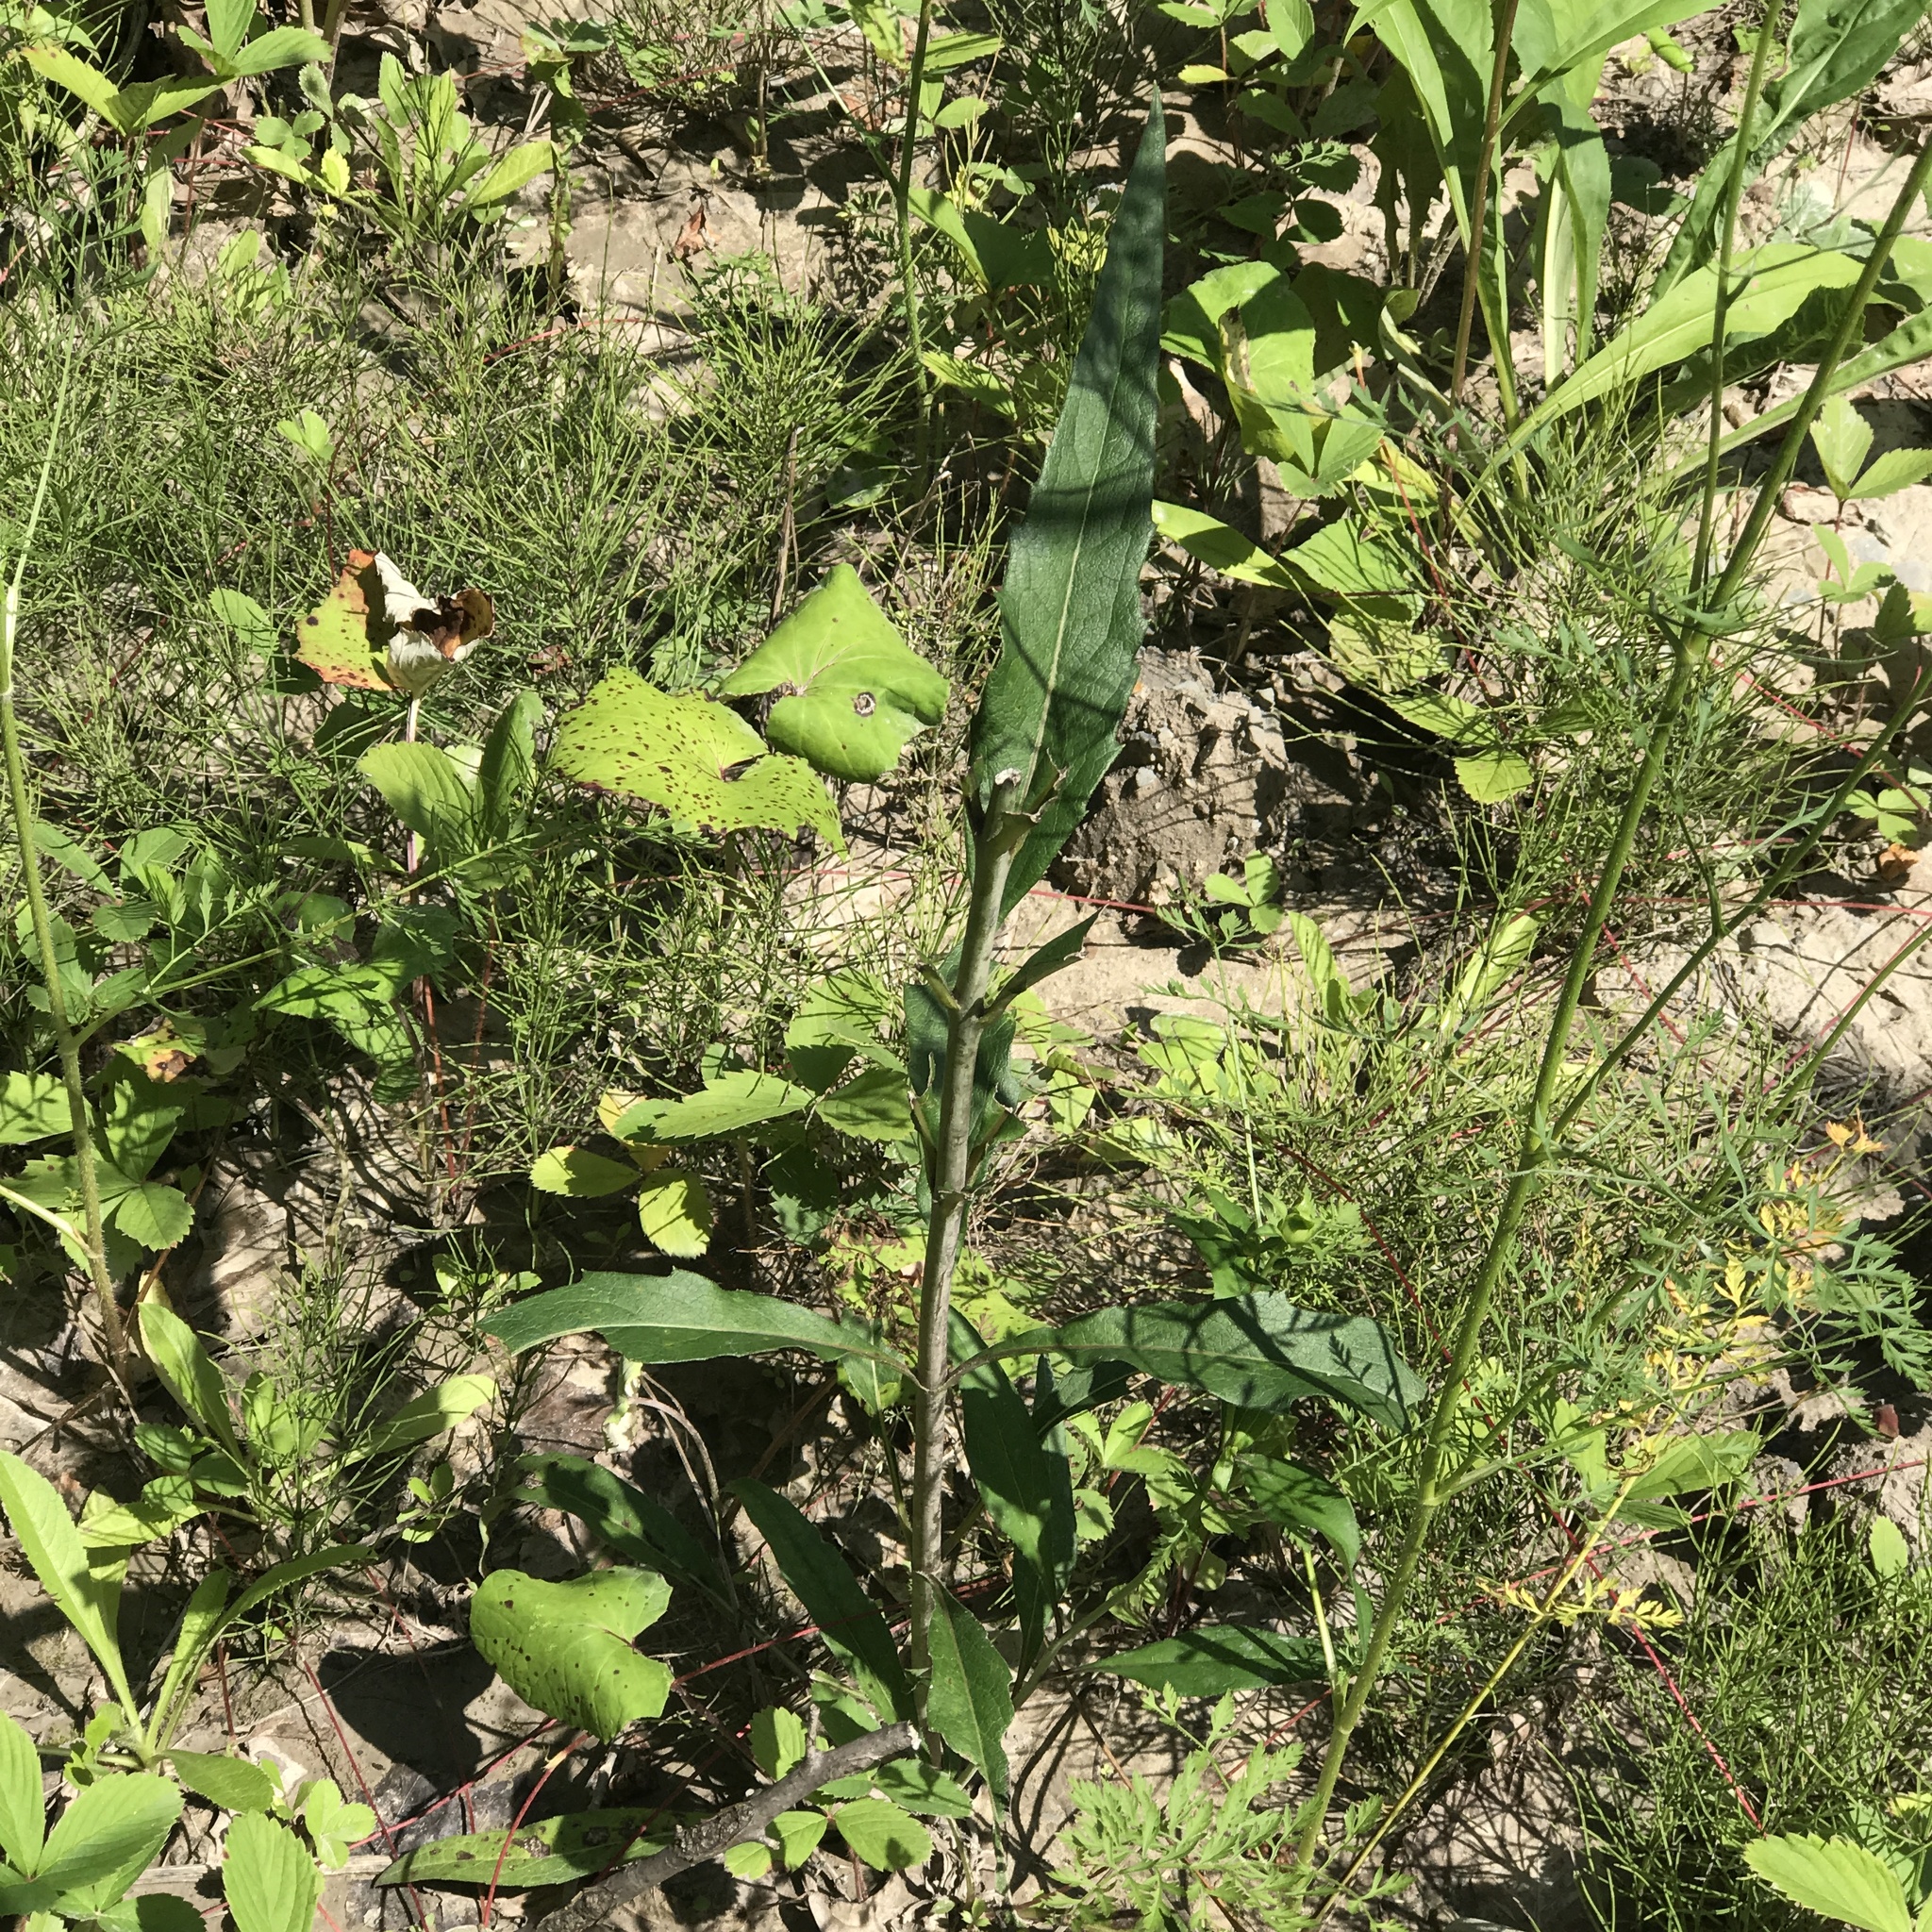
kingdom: Plantae
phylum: Tracheophyta
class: Magnoliopsida
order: Asterales
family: Asteraceae
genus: Silphium
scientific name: Silphium asteriscus
